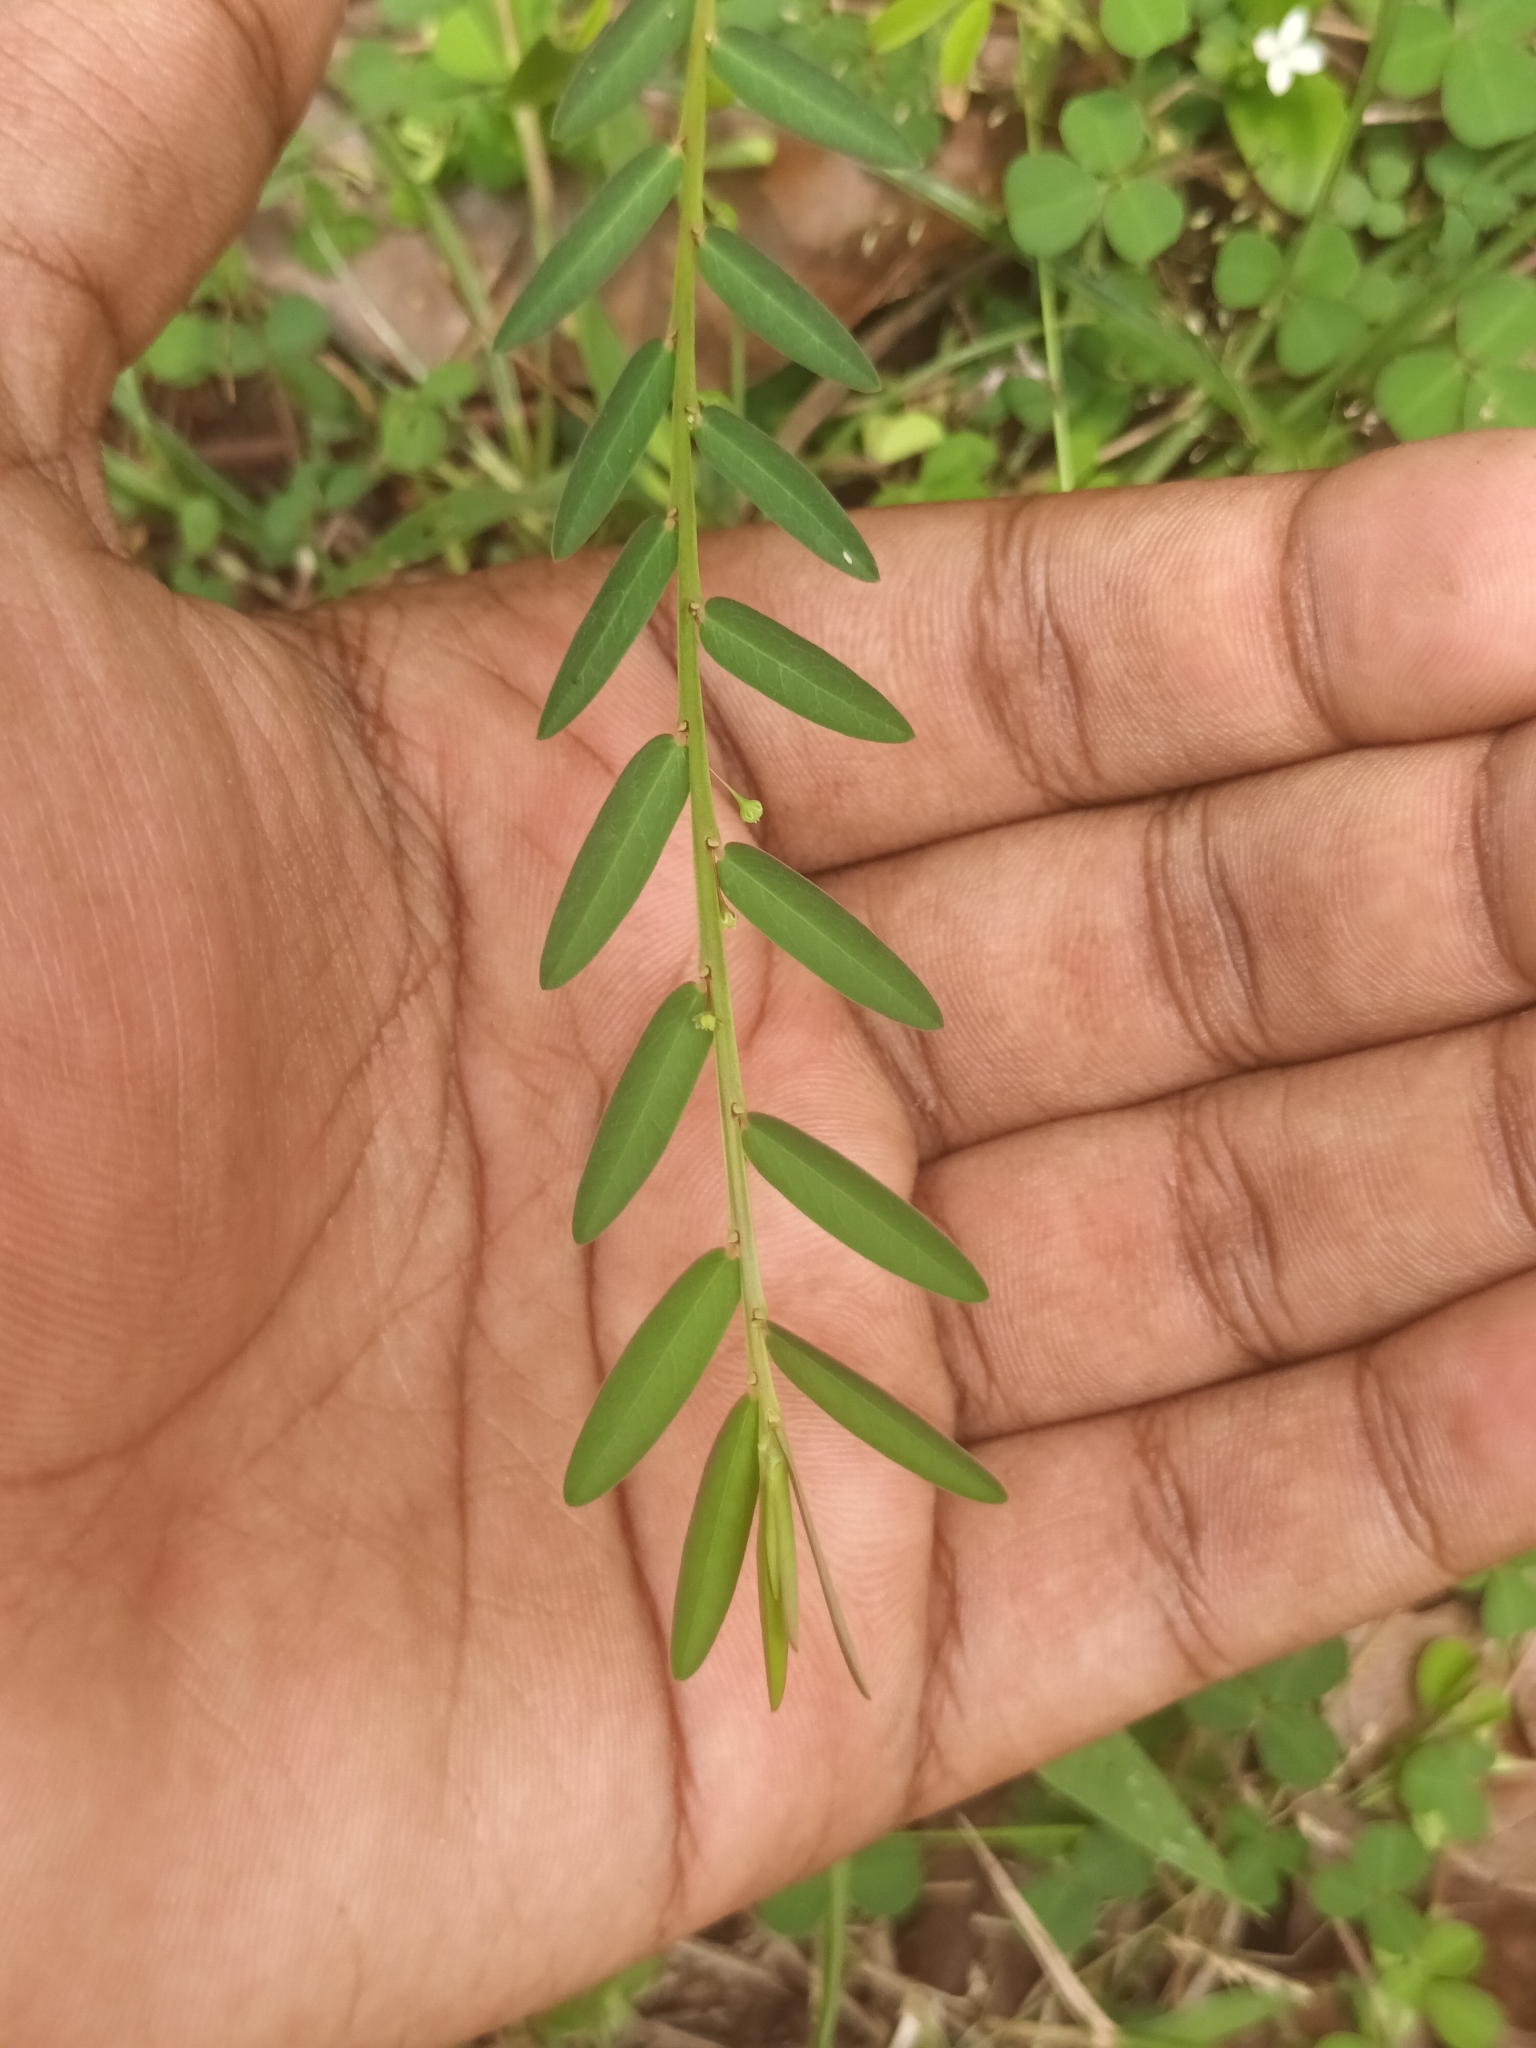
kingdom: Plantae
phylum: Tracheophyta
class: Magnoliopsida
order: Malpighiales
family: Phyllanthaceae
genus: Phyllanthus
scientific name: Phyllanthus virgatus
